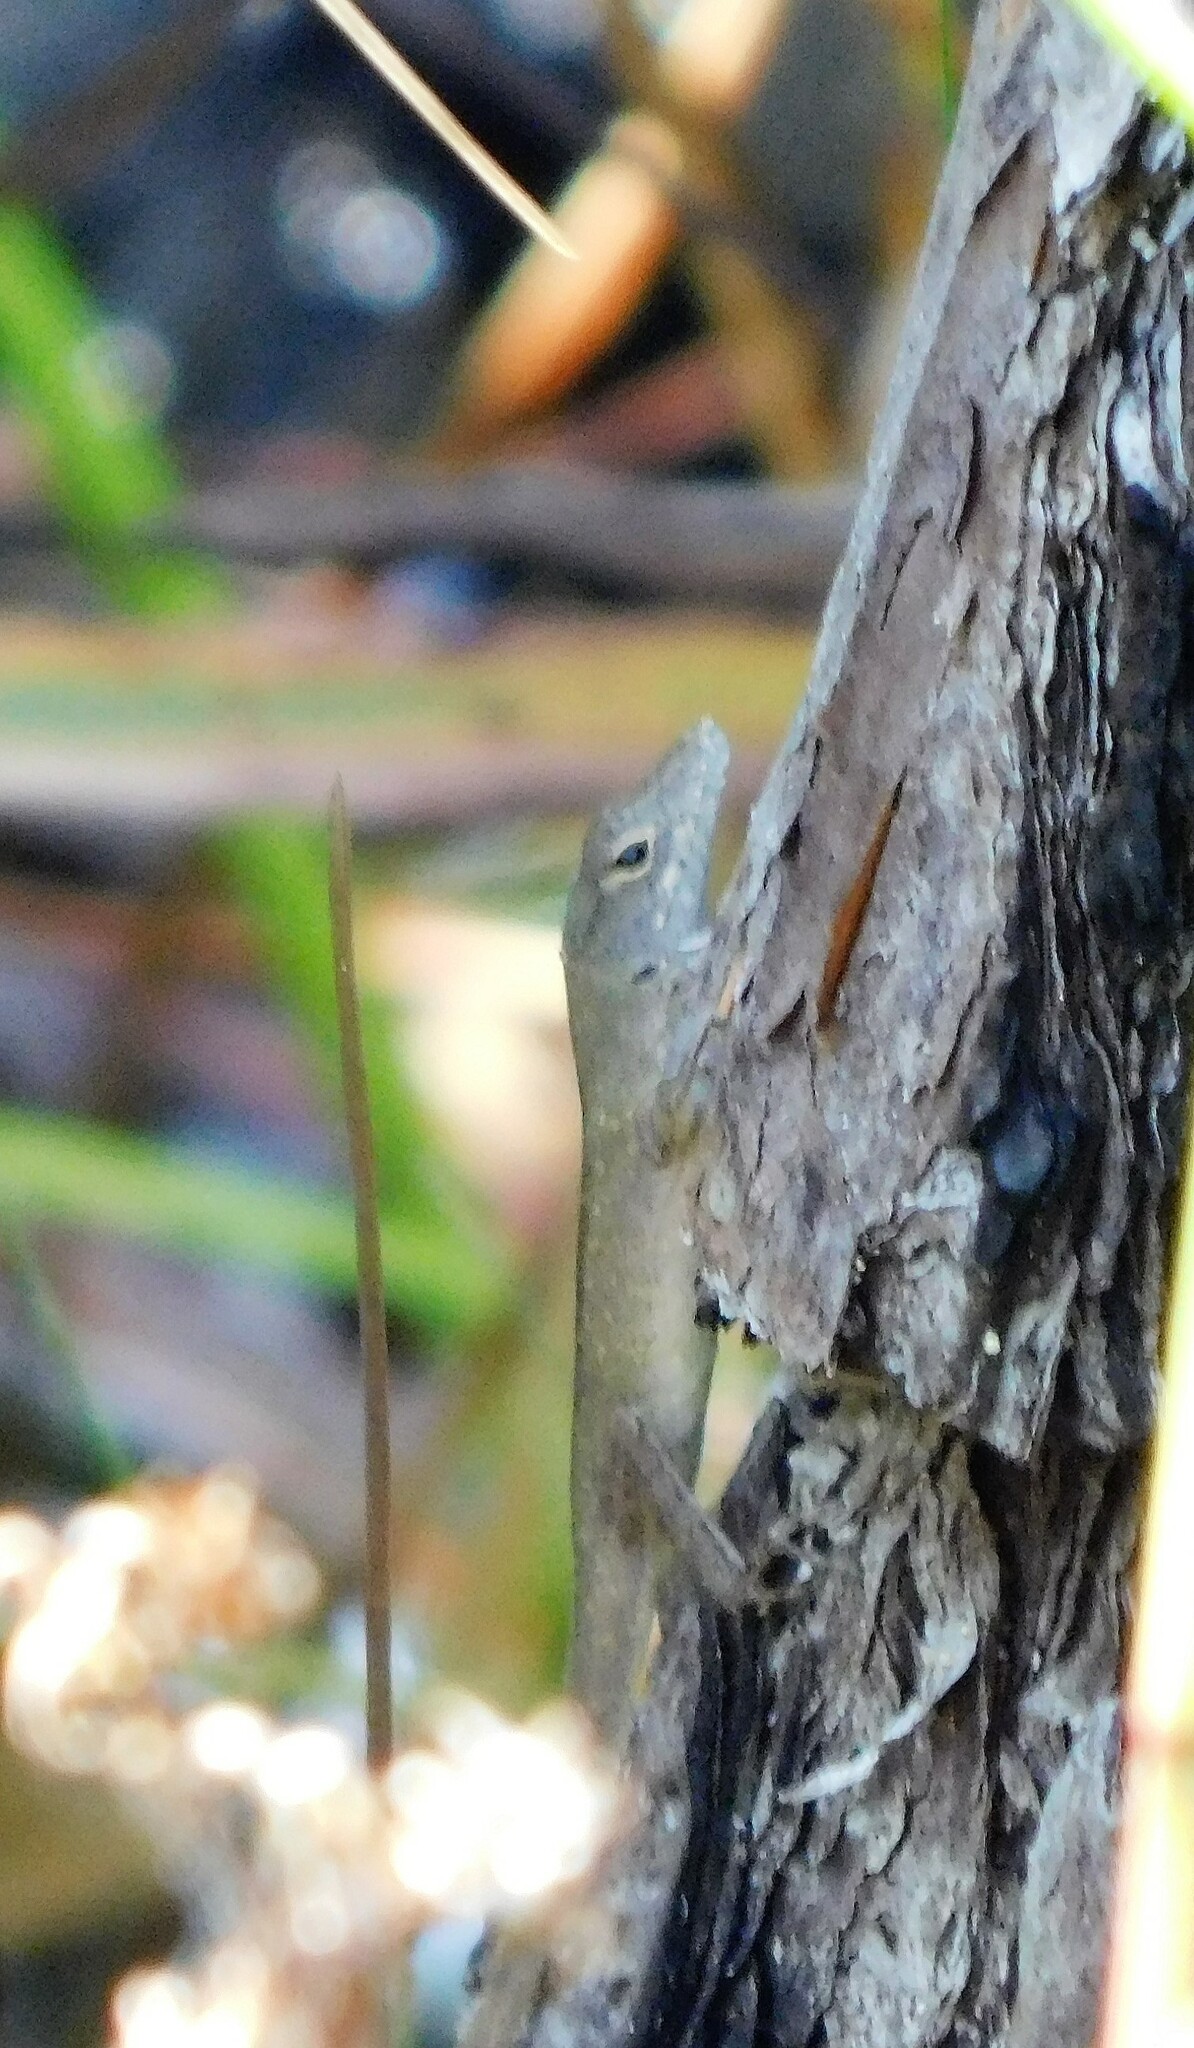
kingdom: Animalia
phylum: Chordata
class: Squamata
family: Dactyloidae
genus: Anolis
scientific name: Anolis sagrei
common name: Brown anole
